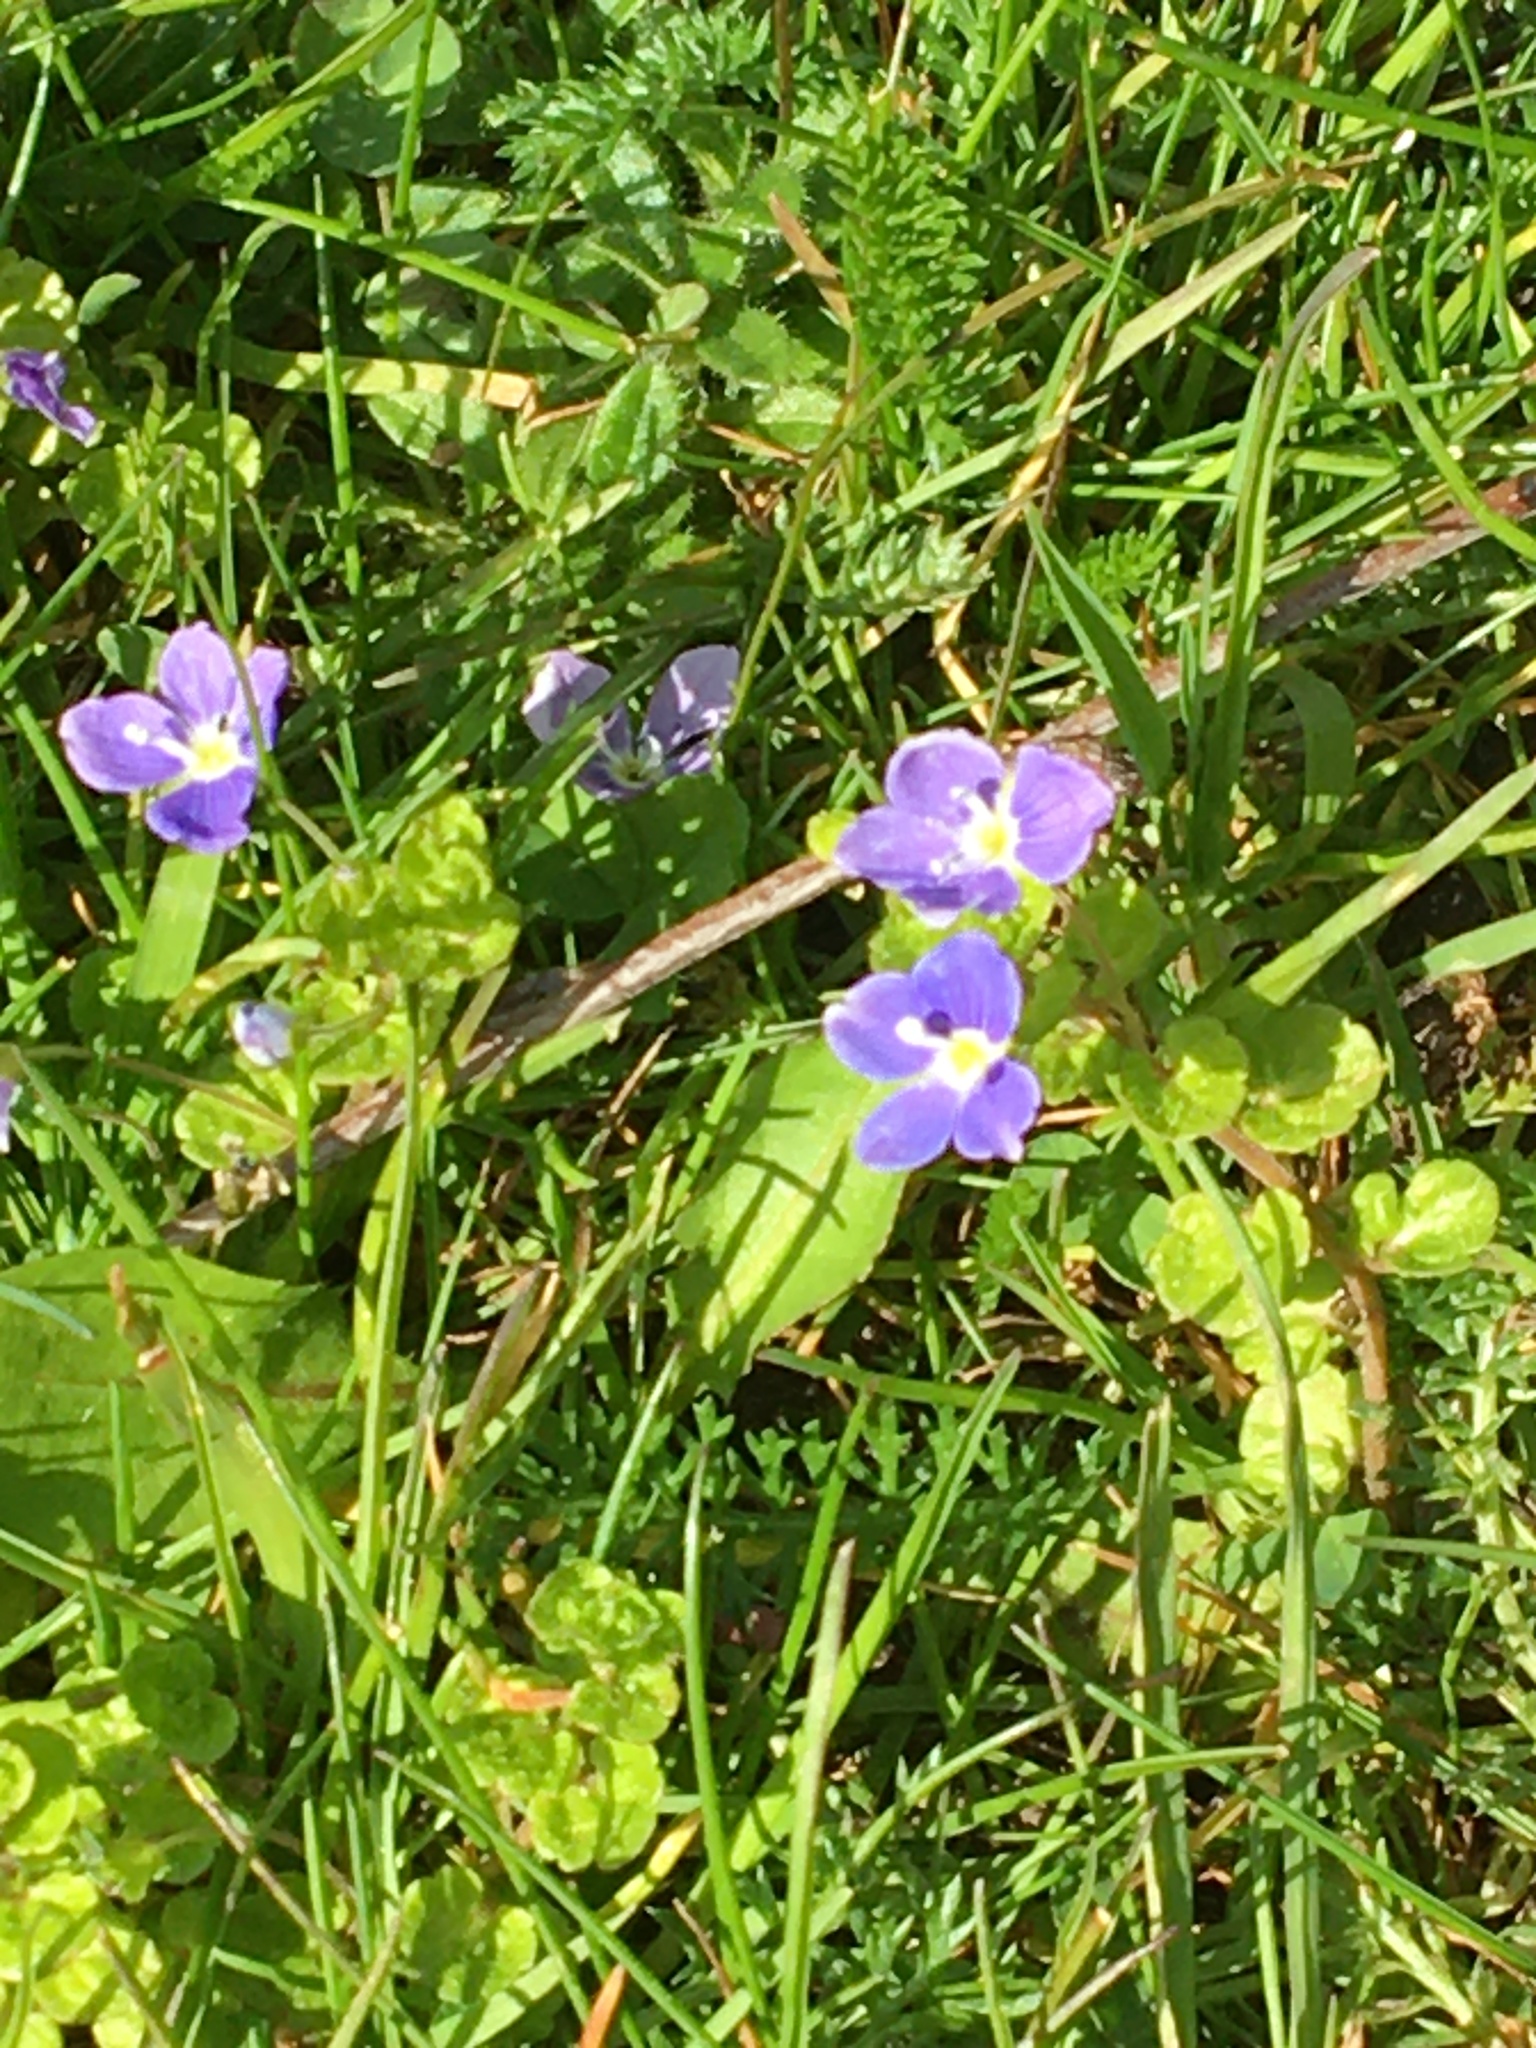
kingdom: Plantae
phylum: Tracheophyta
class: Magnoliopsida
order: Lamiales
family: Plantaginaceae
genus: Veronica
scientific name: Veronica filiformis
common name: Slender speedwell
